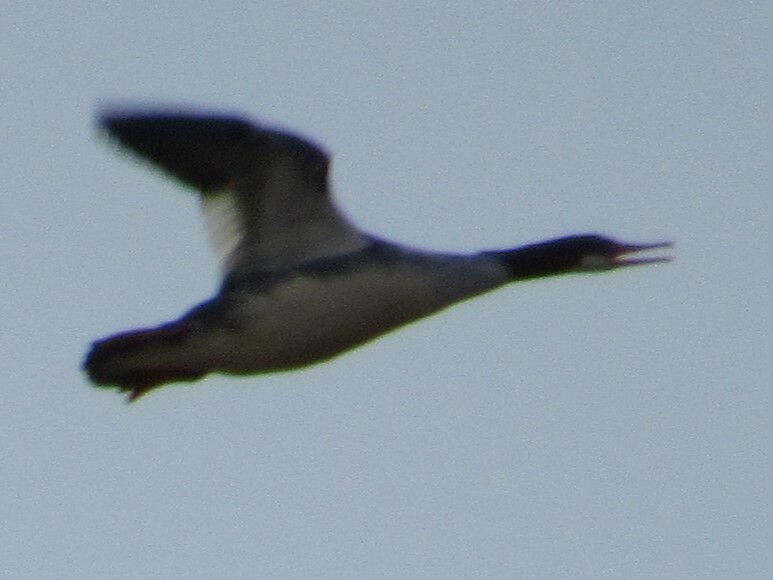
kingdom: Animalia
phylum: Chordata
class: Aves
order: Anseriformes
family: Anatidae
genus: Mergus
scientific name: Mergus merganser
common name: Common merganser
